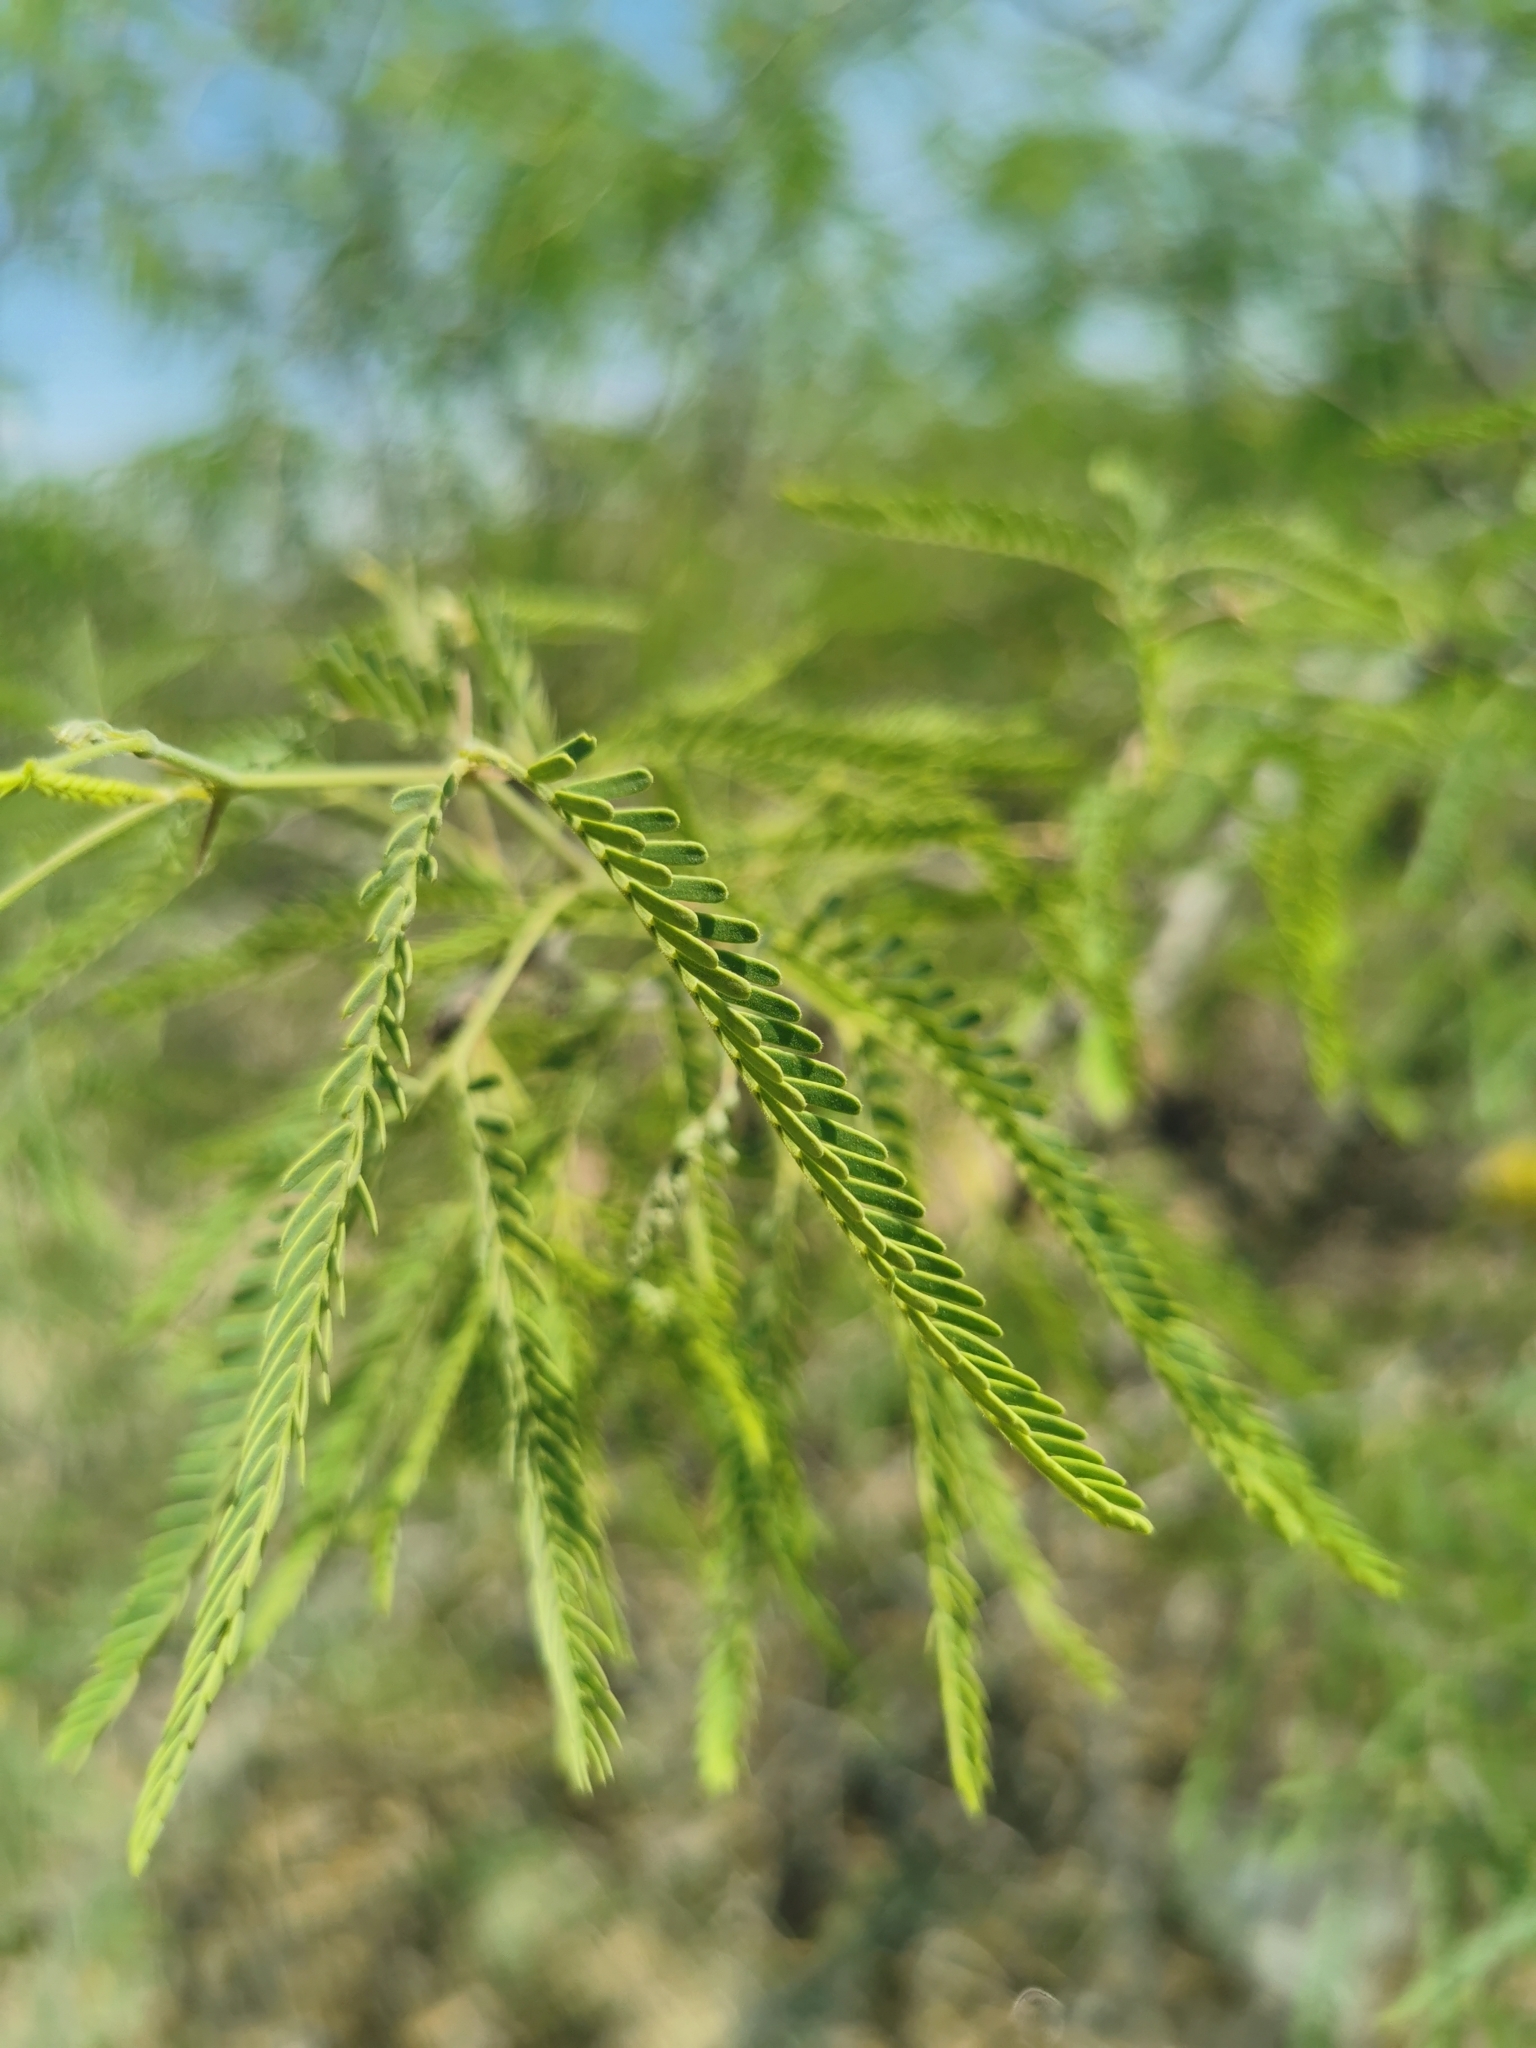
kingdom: Plantae
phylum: Tracheophyta
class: Magnoliopsida
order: Fabales
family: Fabaceae
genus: Prosopis
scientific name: Prosopis laevigata
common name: Smooth mesquite
